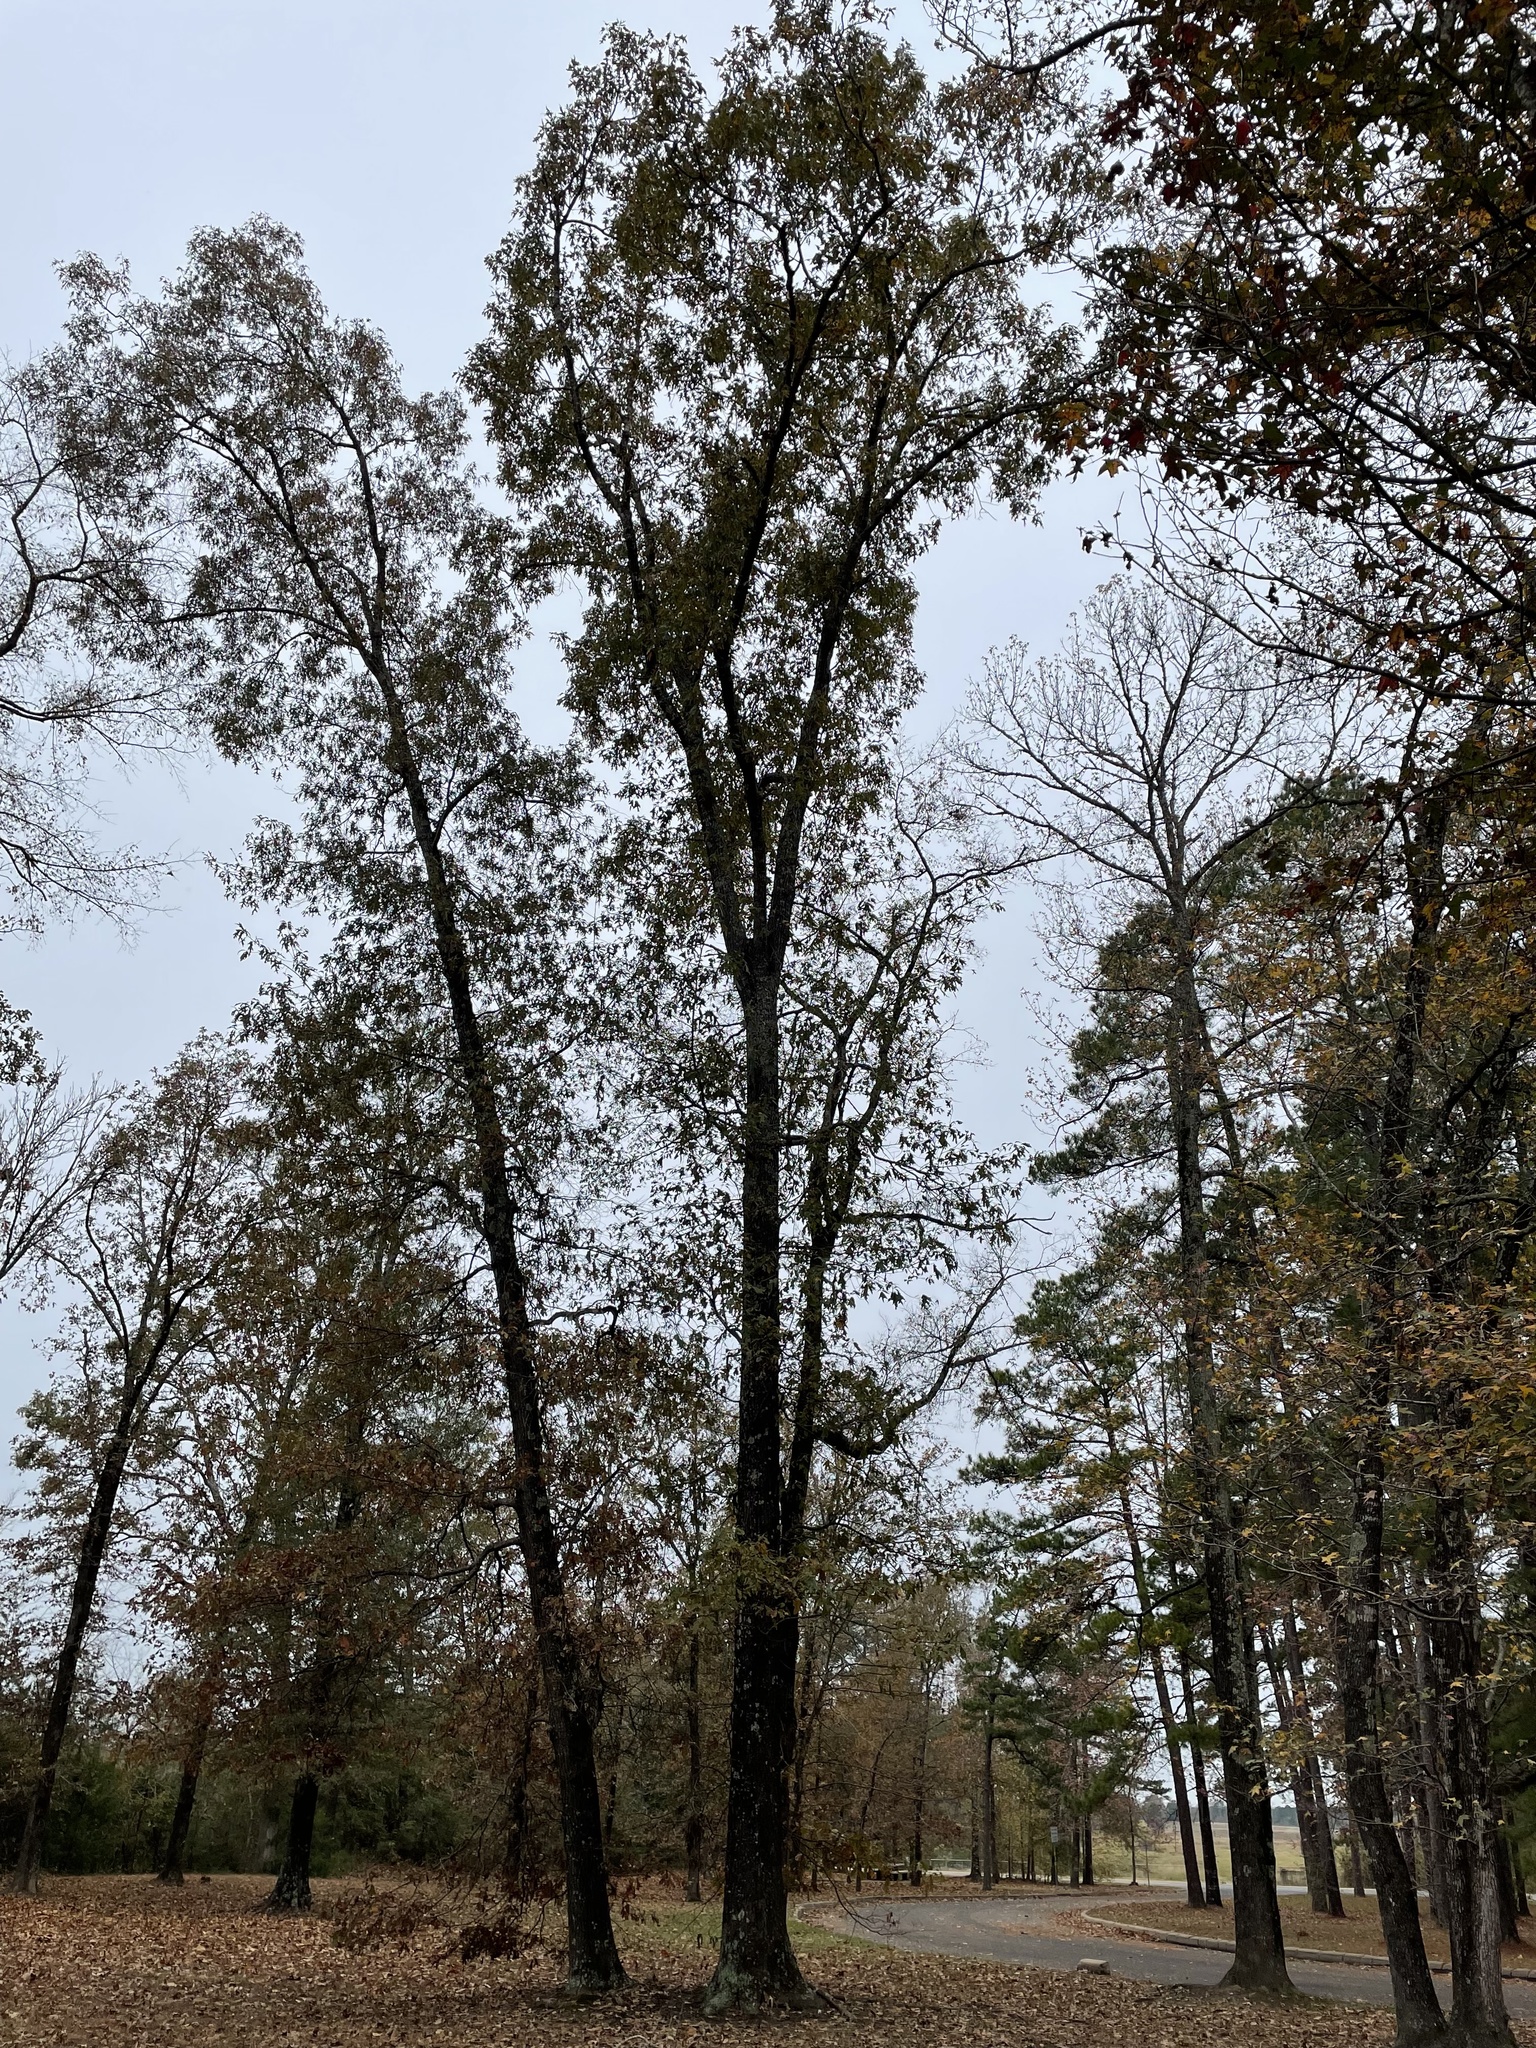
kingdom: Plantae
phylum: Tracheophyta
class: Magnoliopsida
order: Fagales
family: Fagaceae
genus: Quercus
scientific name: Quercus velutina
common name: Black oak
